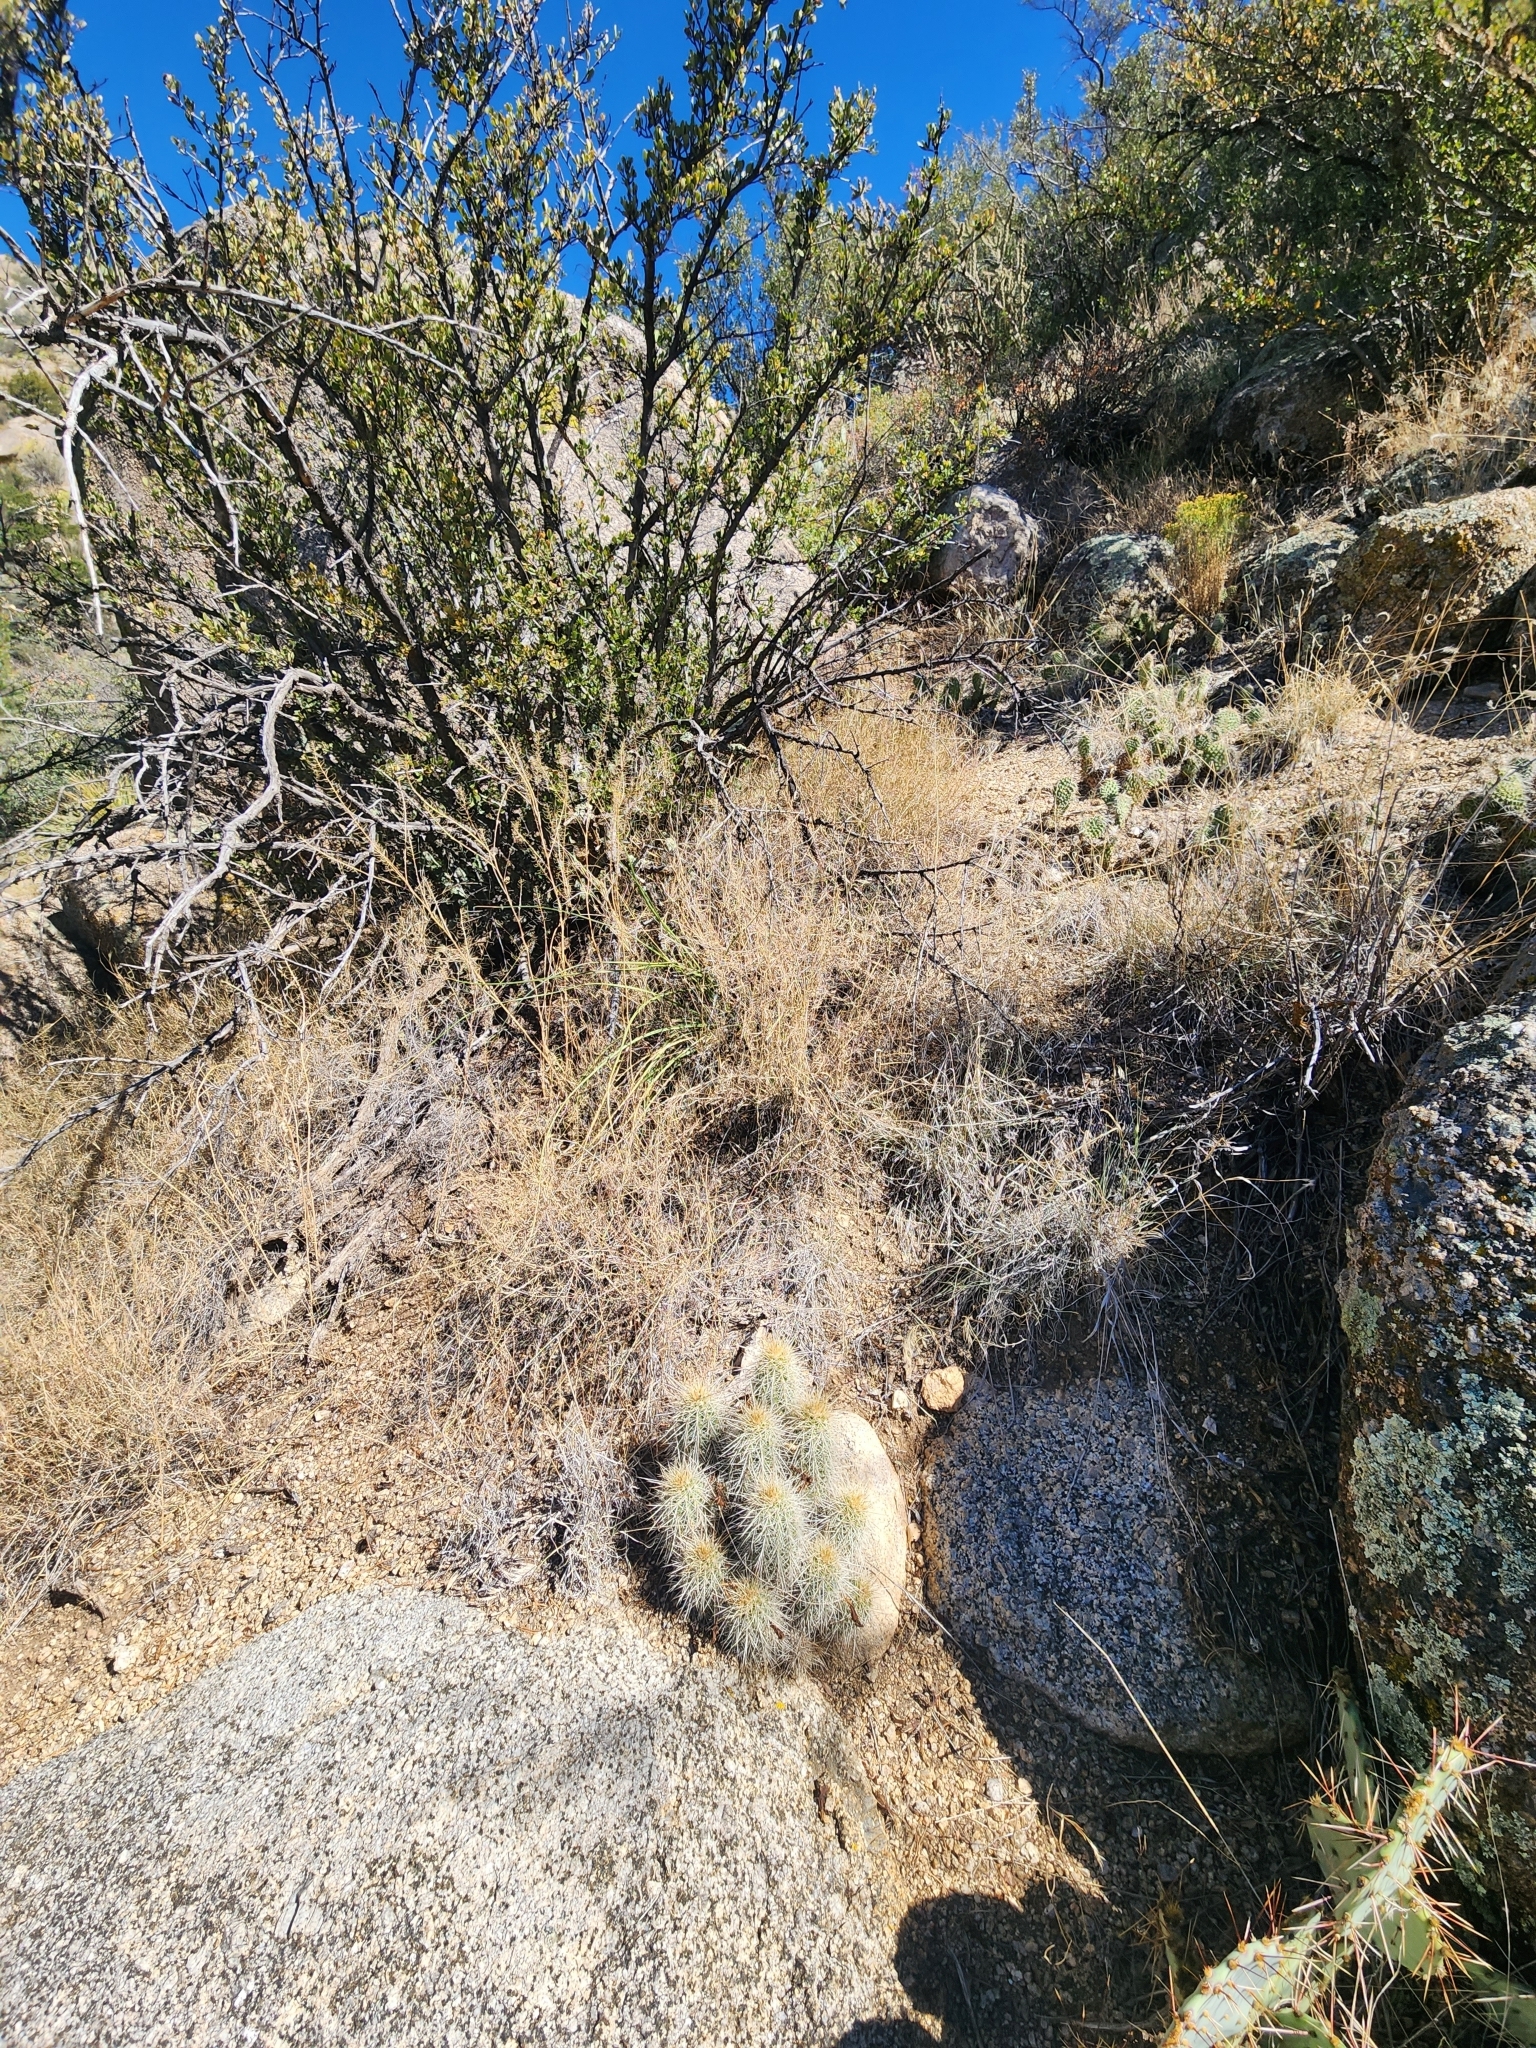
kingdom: Plantae
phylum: Tracheophyta
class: Magnoliopsida
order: Caryophyllales
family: Cactaceae
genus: Echinocereus
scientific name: Echinocereus coccineus
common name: Scarlet hedgehog cactus
